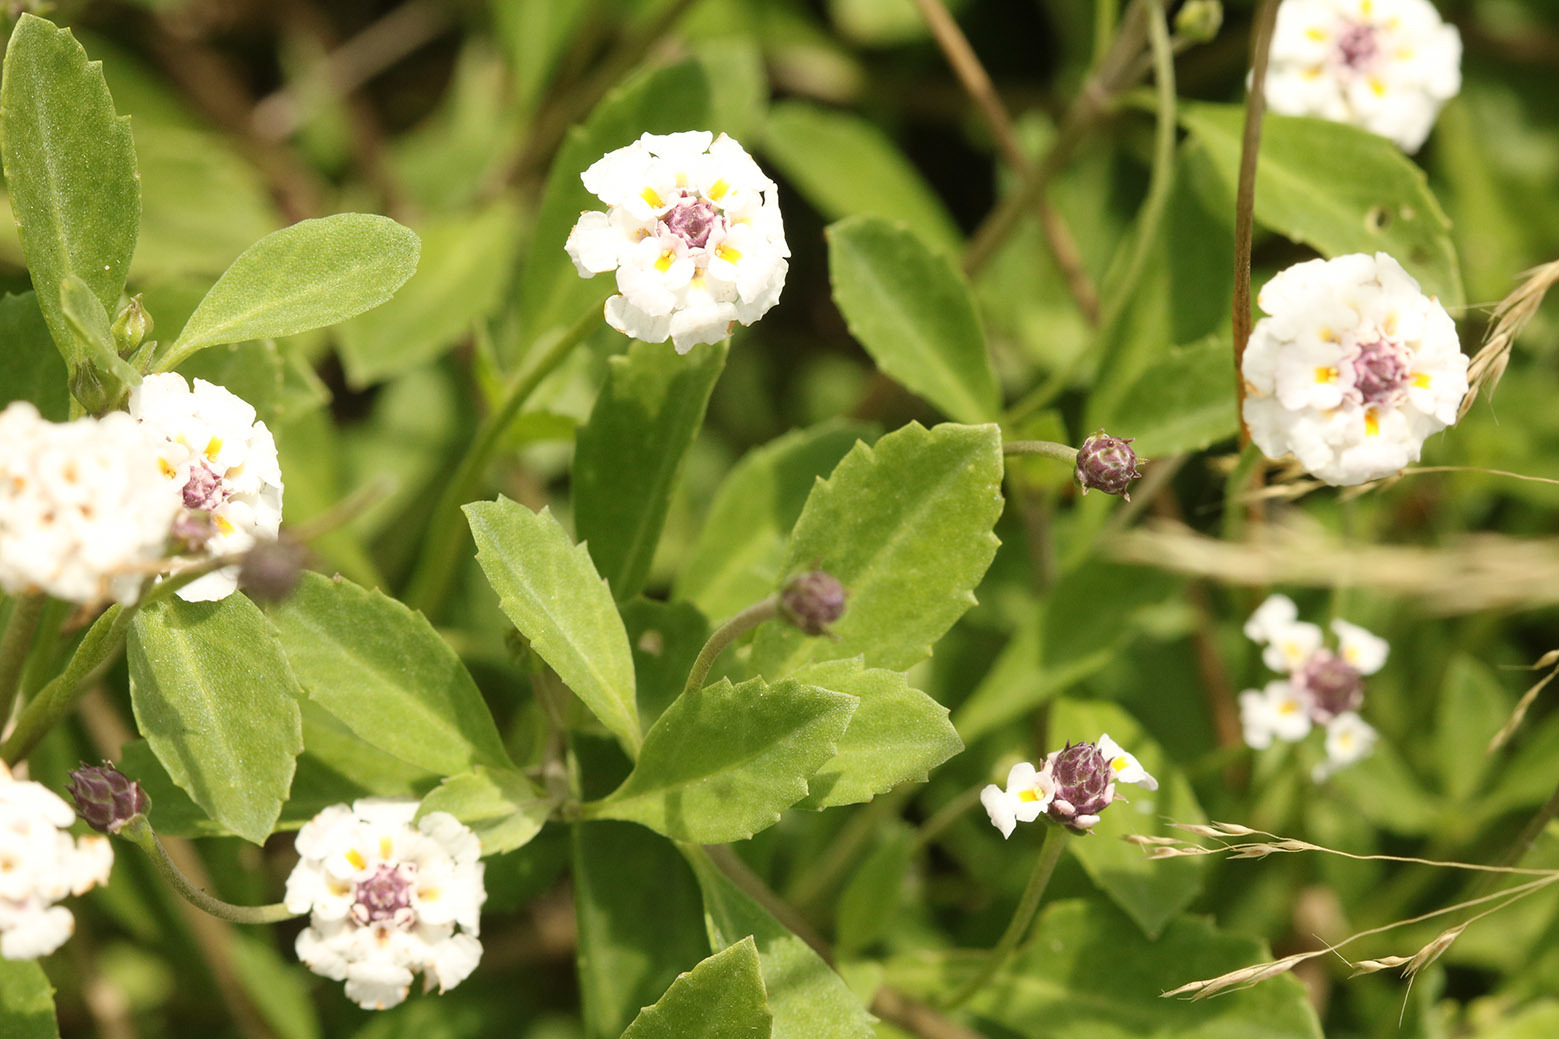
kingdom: Plantae
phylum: Tracheophyta
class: Magnoliopsida
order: Lamiales
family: Verbenaceae
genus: Phyla
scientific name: Phyla nodiflora
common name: Frogfruit
